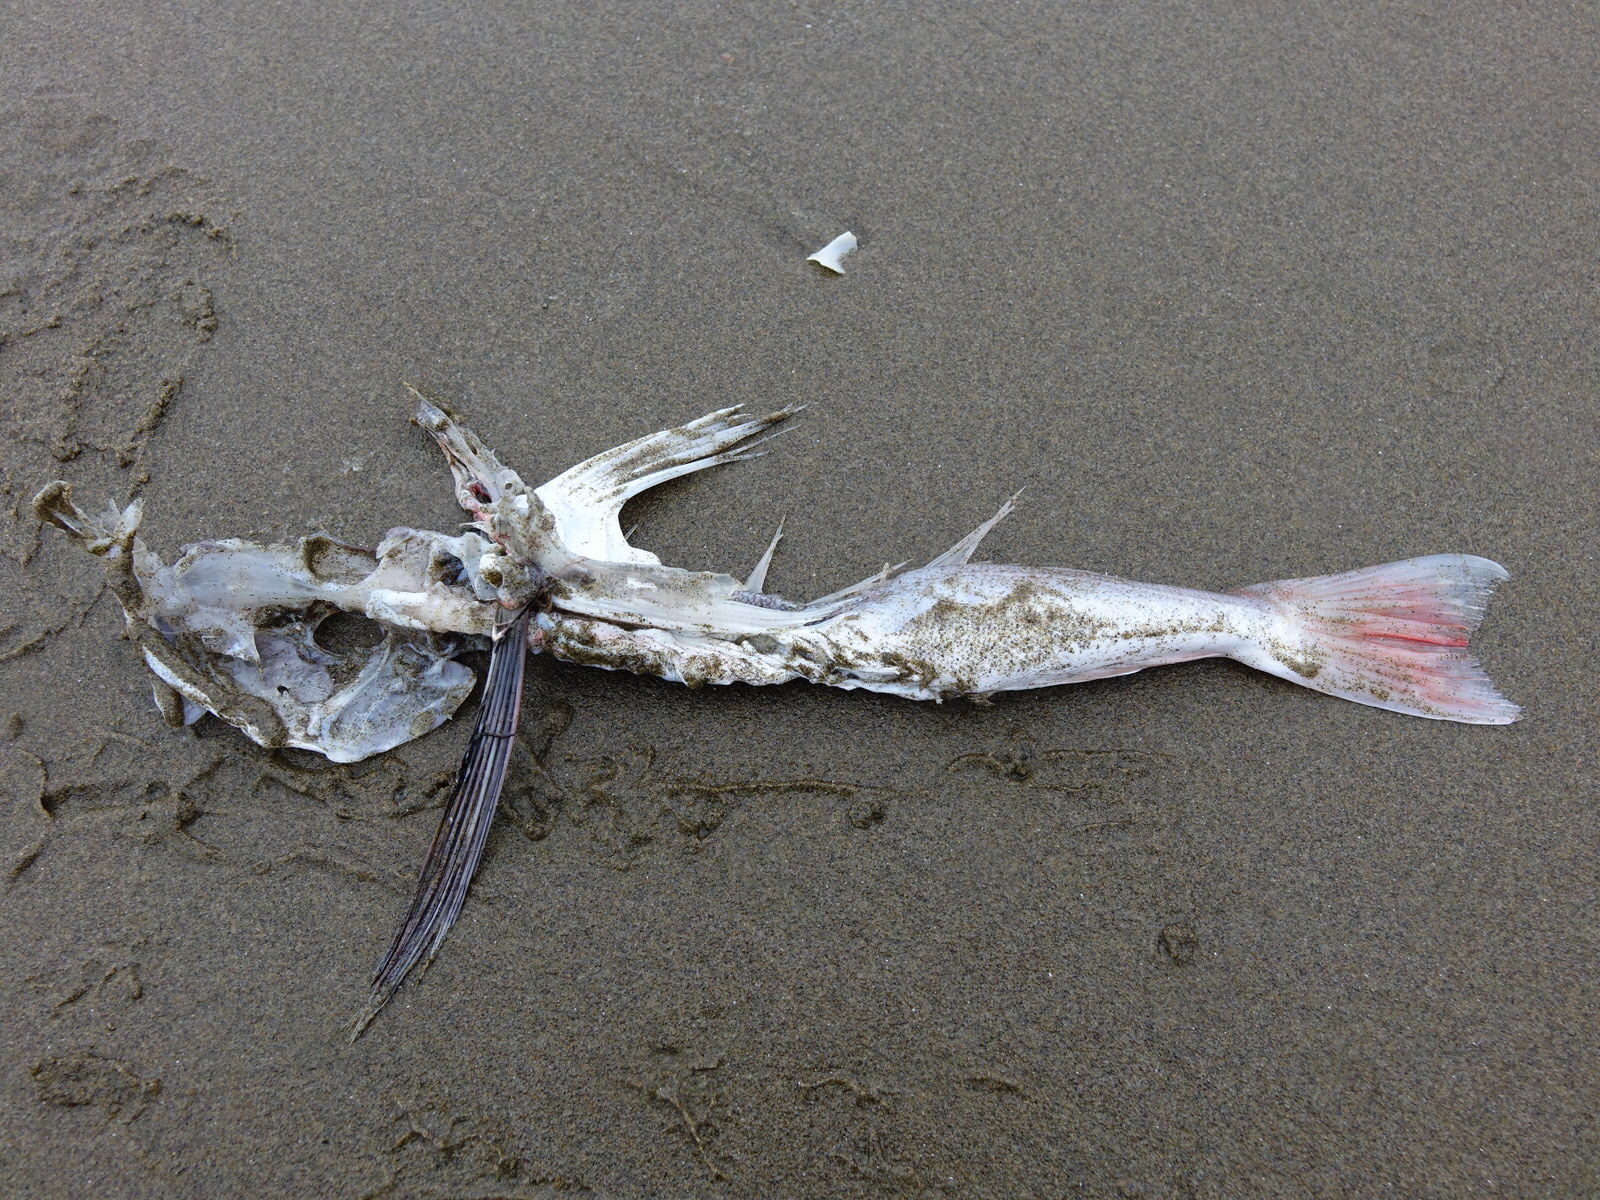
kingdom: Animalia
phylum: Chordata
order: Scorpaeniformes
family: Triglidae
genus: Chelidonichthys
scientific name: Chelidonichthys kumu
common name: Bluefin gurnard
